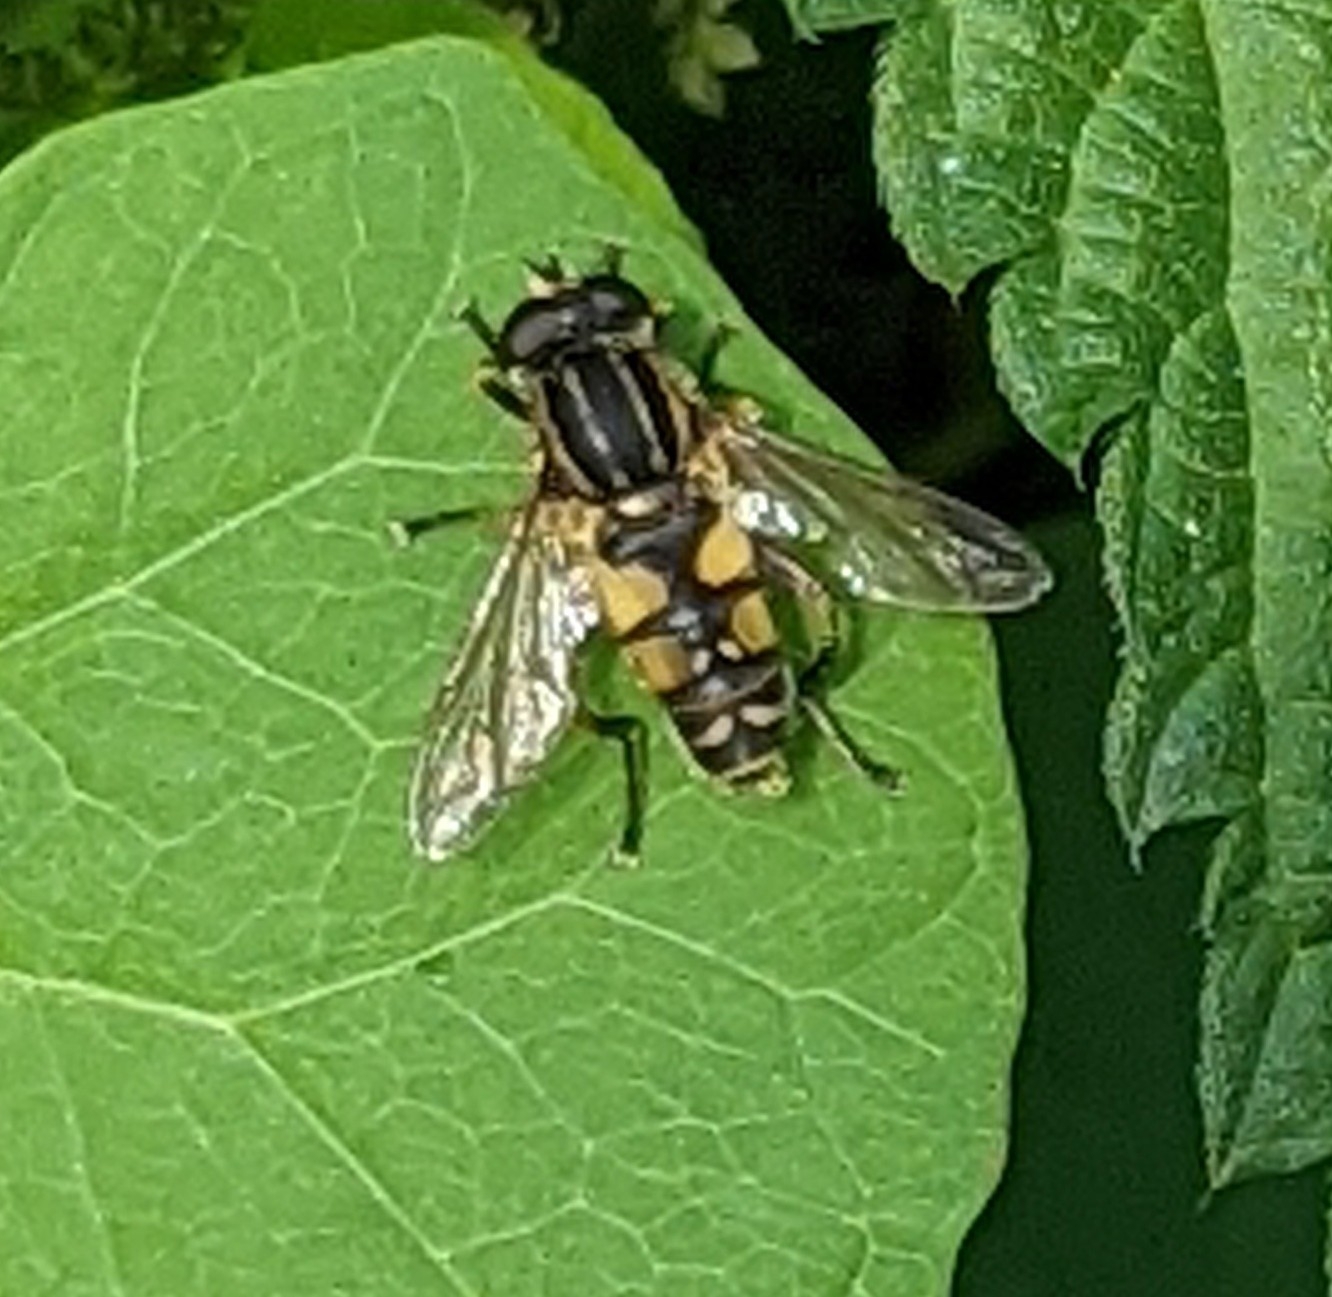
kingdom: Animalia
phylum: Arthropoda
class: Insecta
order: Diptera
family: Syrphidae
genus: Helophilus
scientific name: Helophilus pendulus
